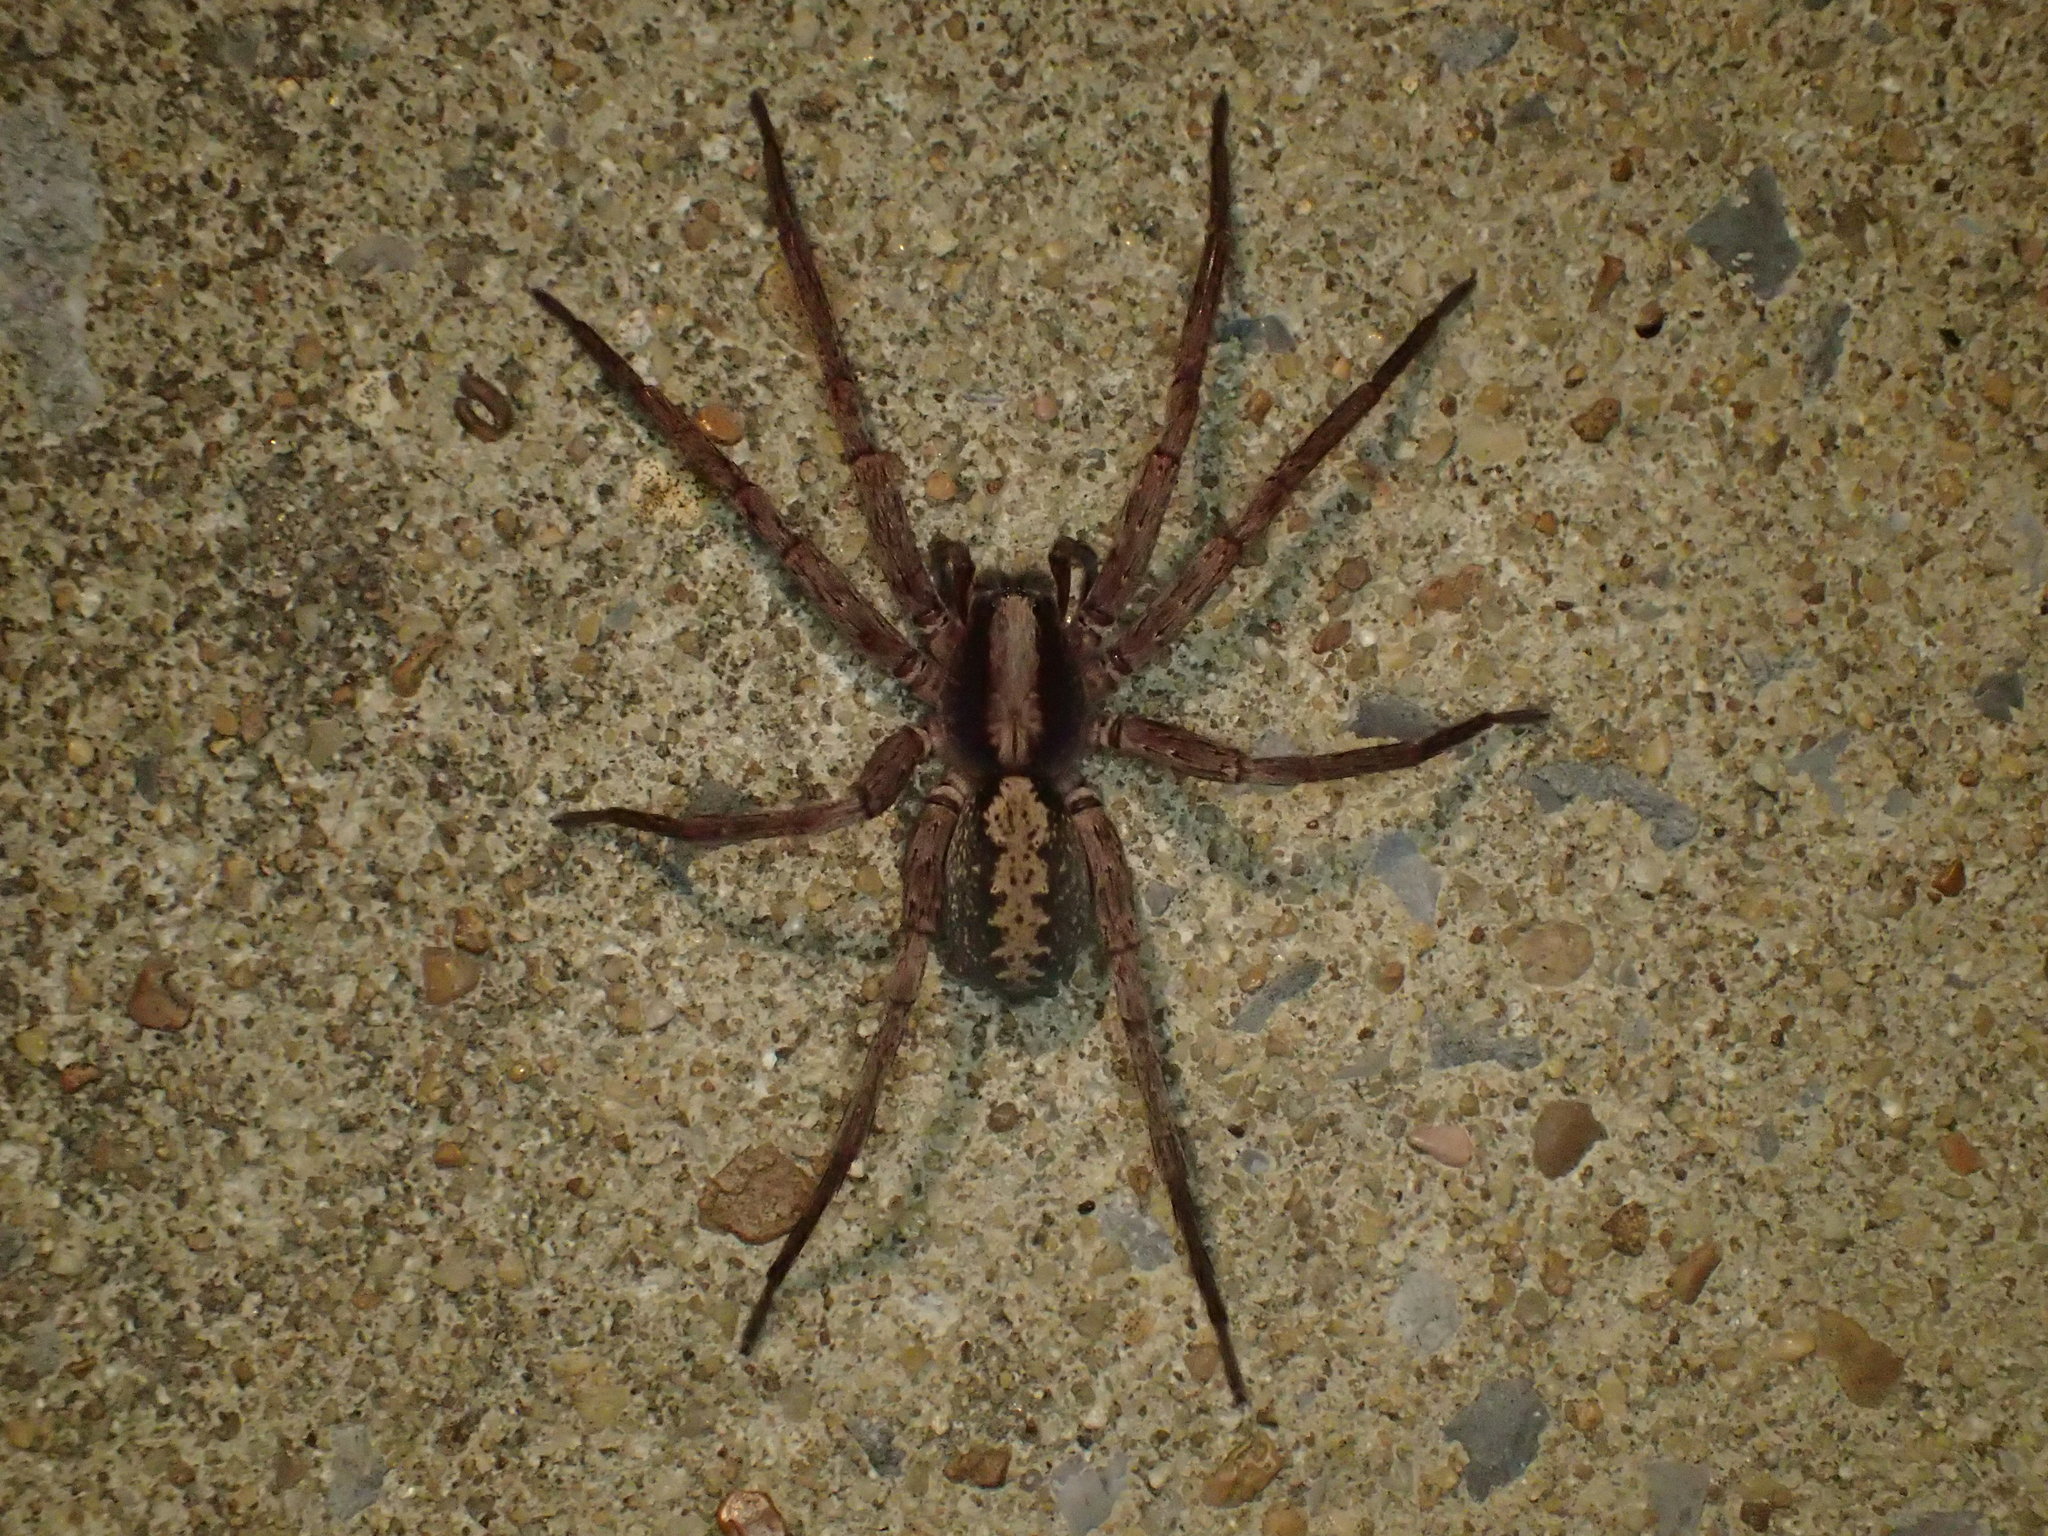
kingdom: Animalia
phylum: Arthropoda
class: Arachnida
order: Araneae
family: Ctenidae
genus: Ctenus
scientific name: Ctenus hibernalis
